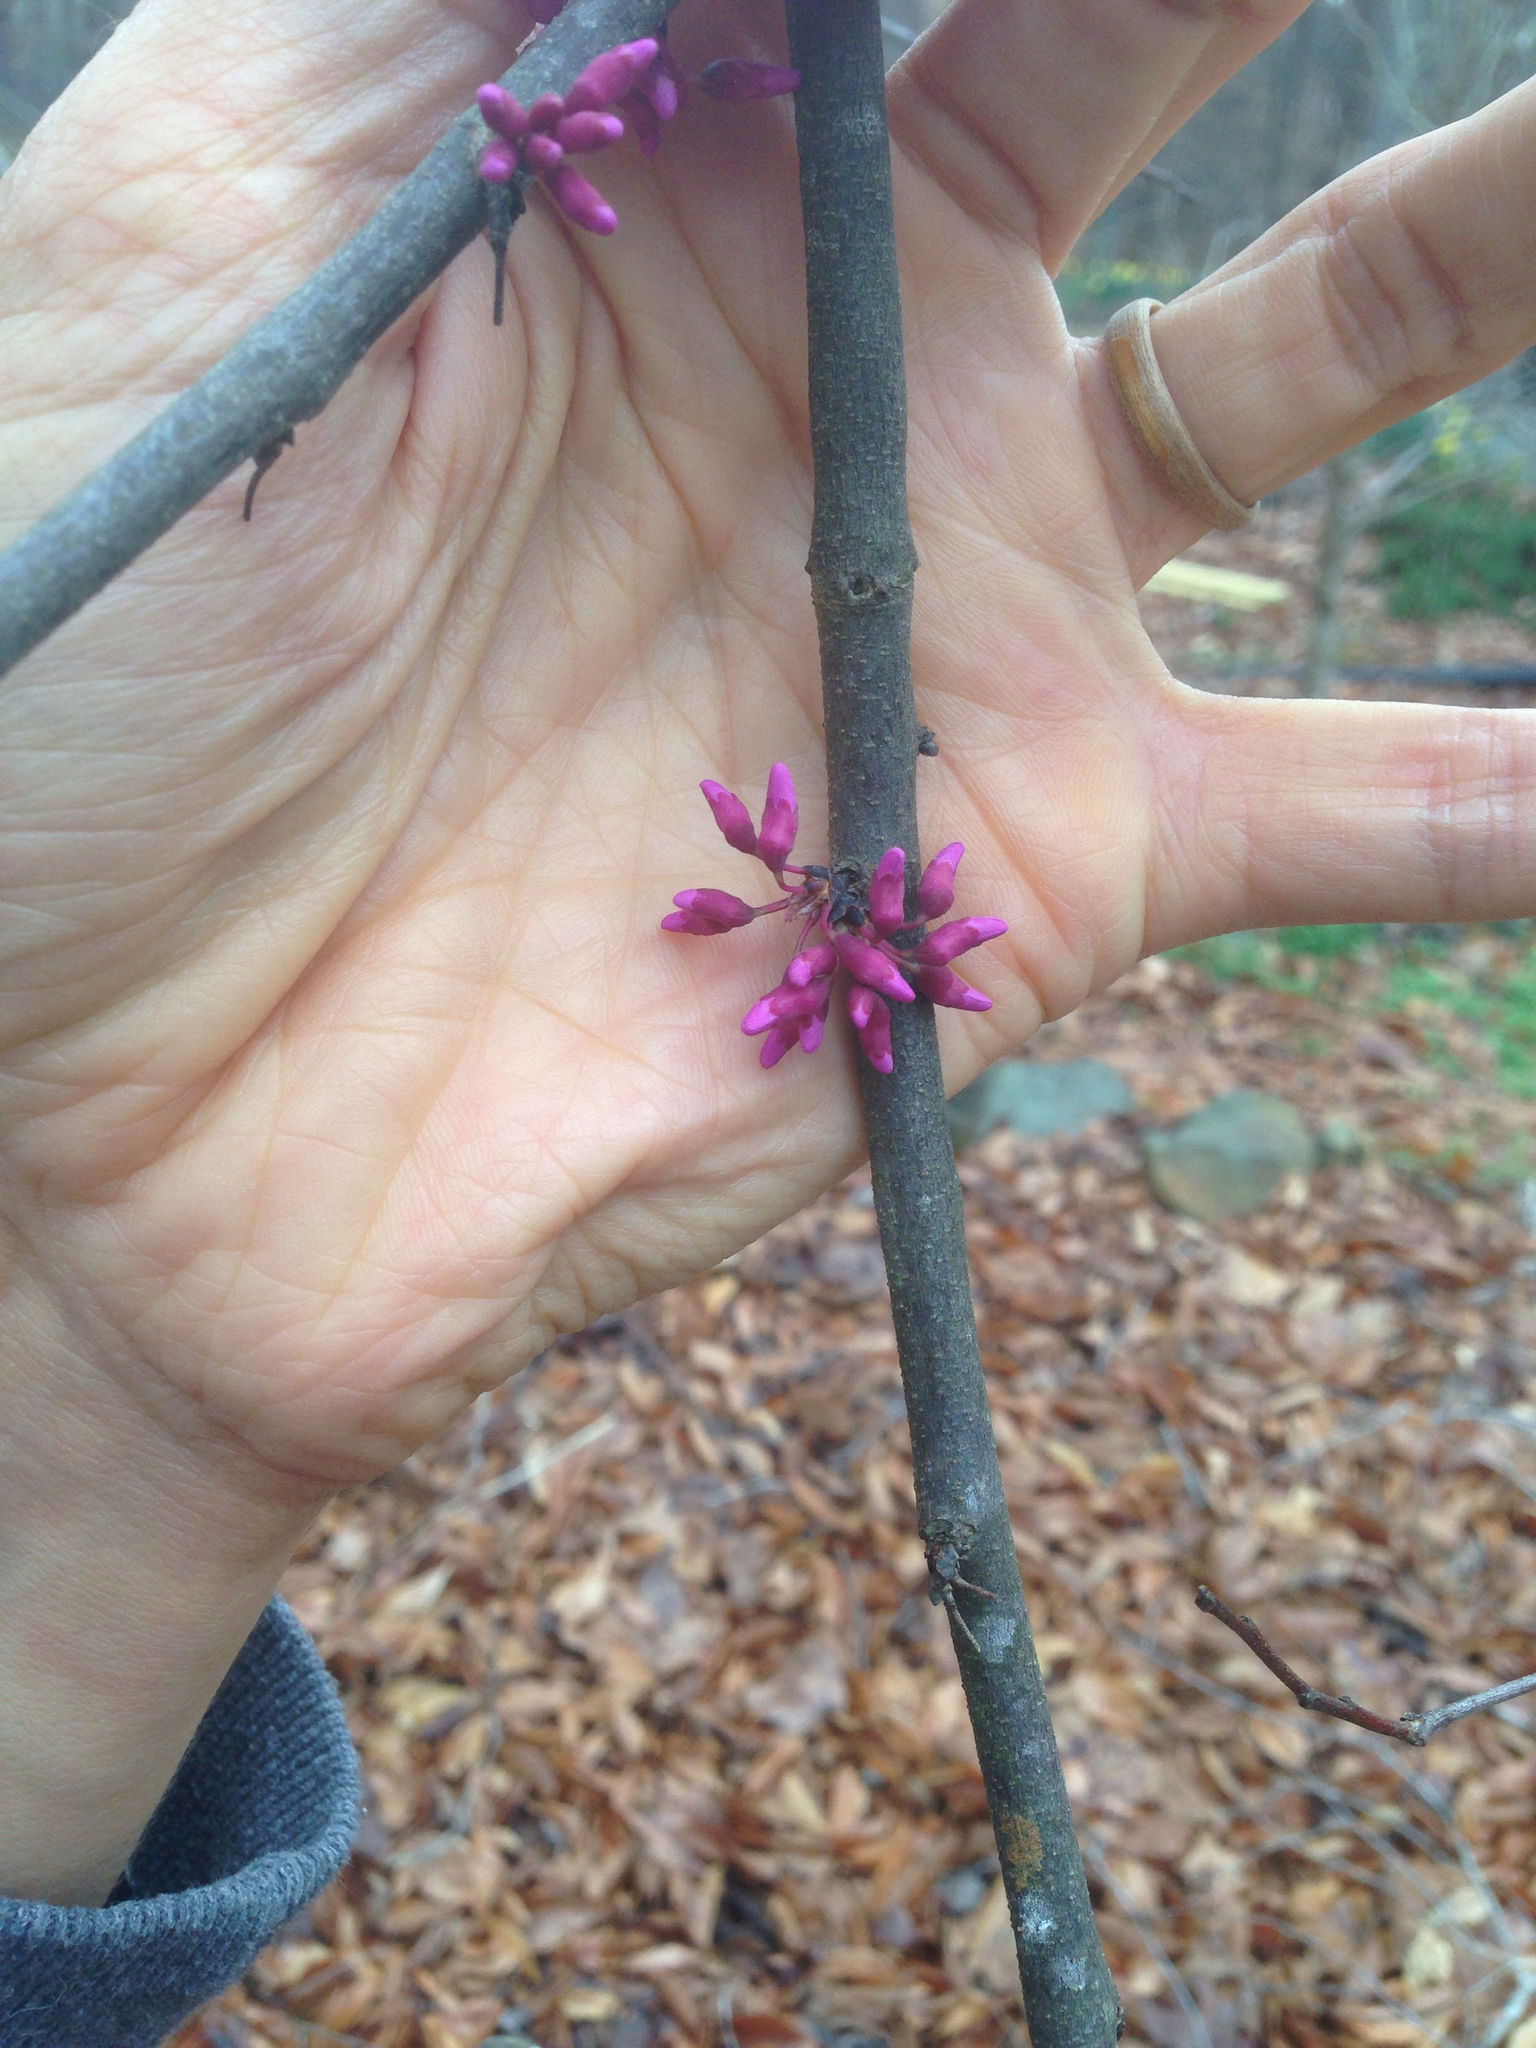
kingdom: Plantae
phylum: Tracheophyta
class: Magnoliopsida
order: Fabales
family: Fabaceae
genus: Cercis
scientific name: Cercis canadensis
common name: Eastern redbud
